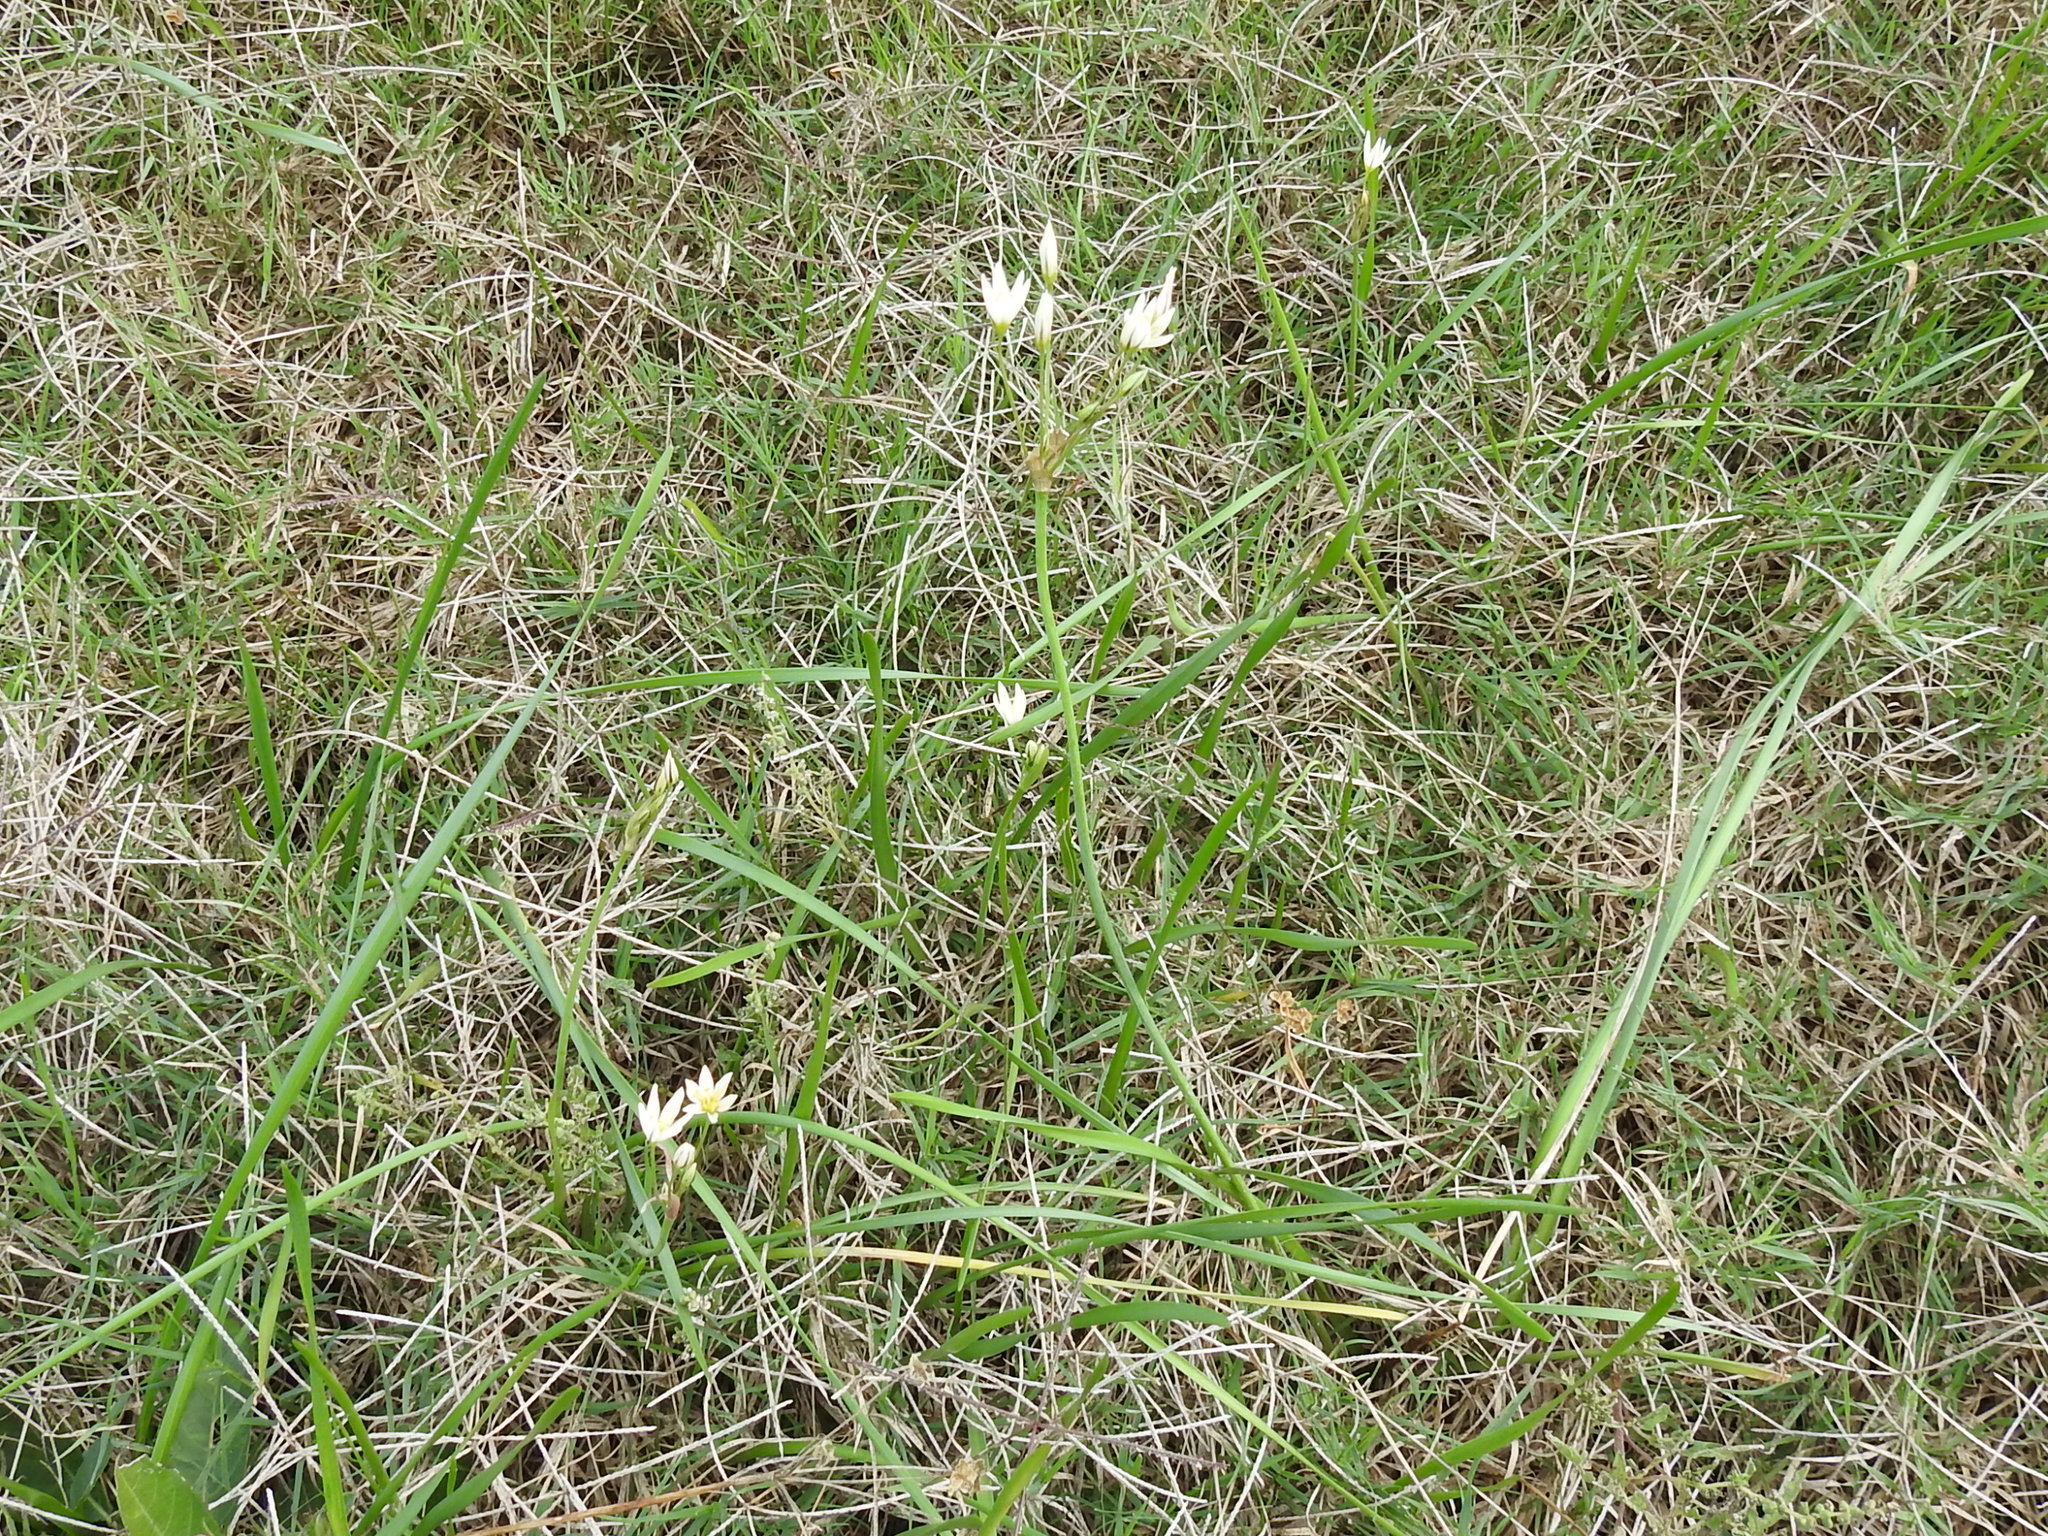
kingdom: Plantae
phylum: Tracheophyta
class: Liliopsida
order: Asparagales
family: Amaryllidaceae
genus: Nothoscordum
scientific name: Nothoscordum bivalve
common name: Crow-poison
